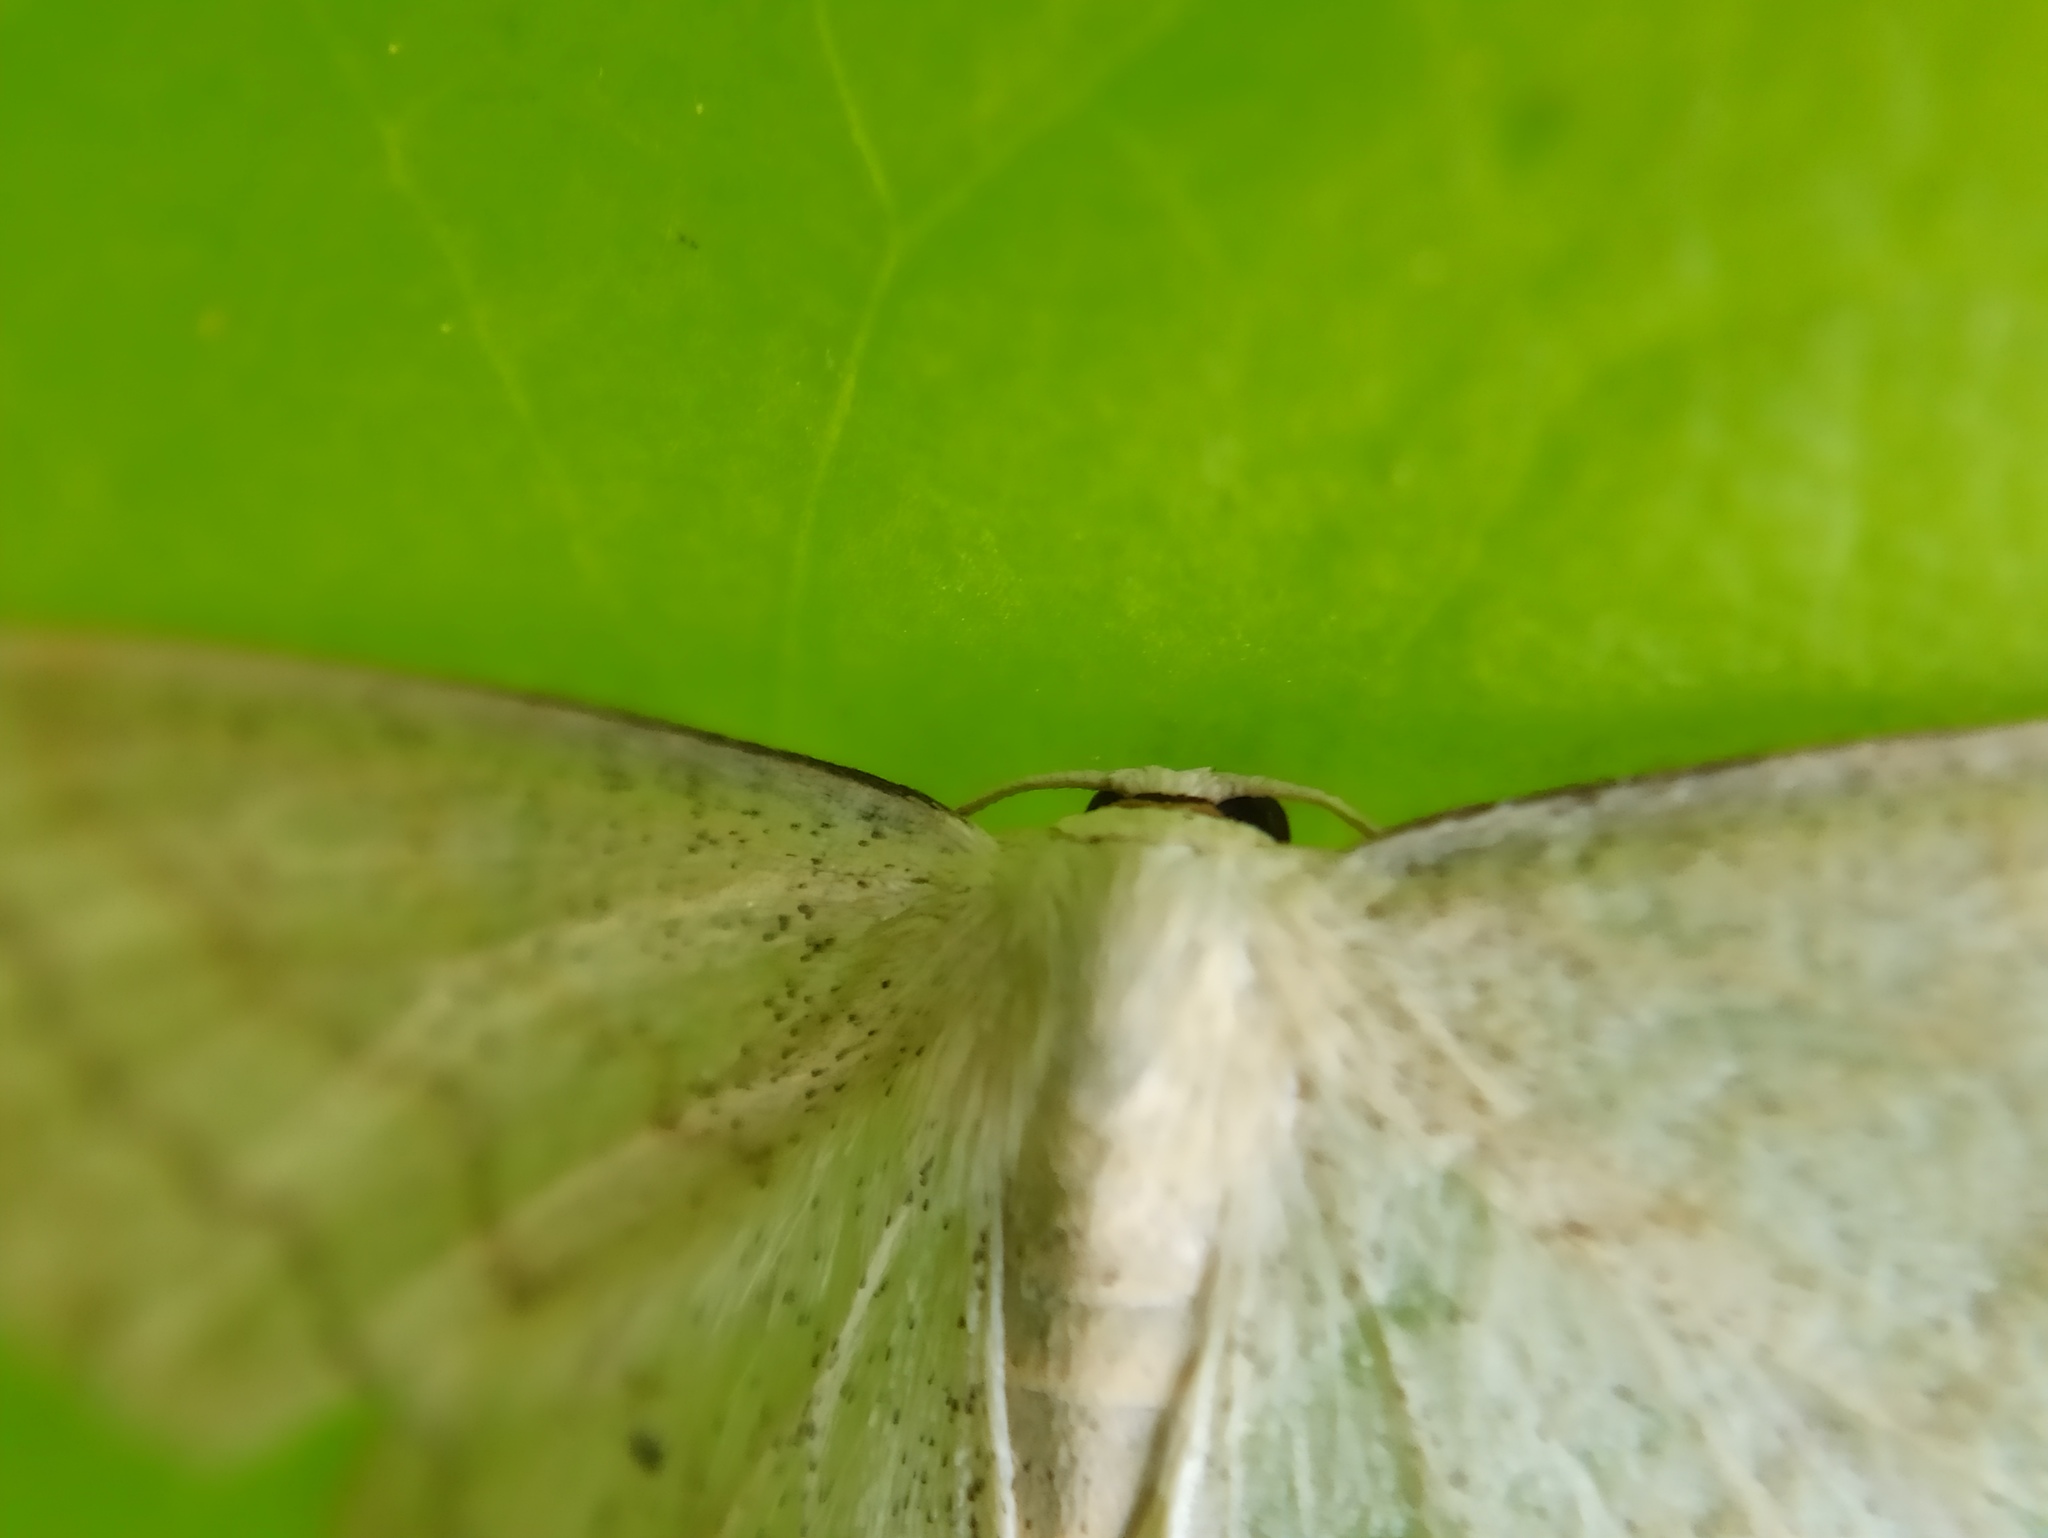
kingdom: Animalia
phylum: Arthropoda
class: Insecta
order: Lepidoptera
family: Geometridae
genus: Scopula
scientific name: Scopula floslactata
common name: Cream wave
